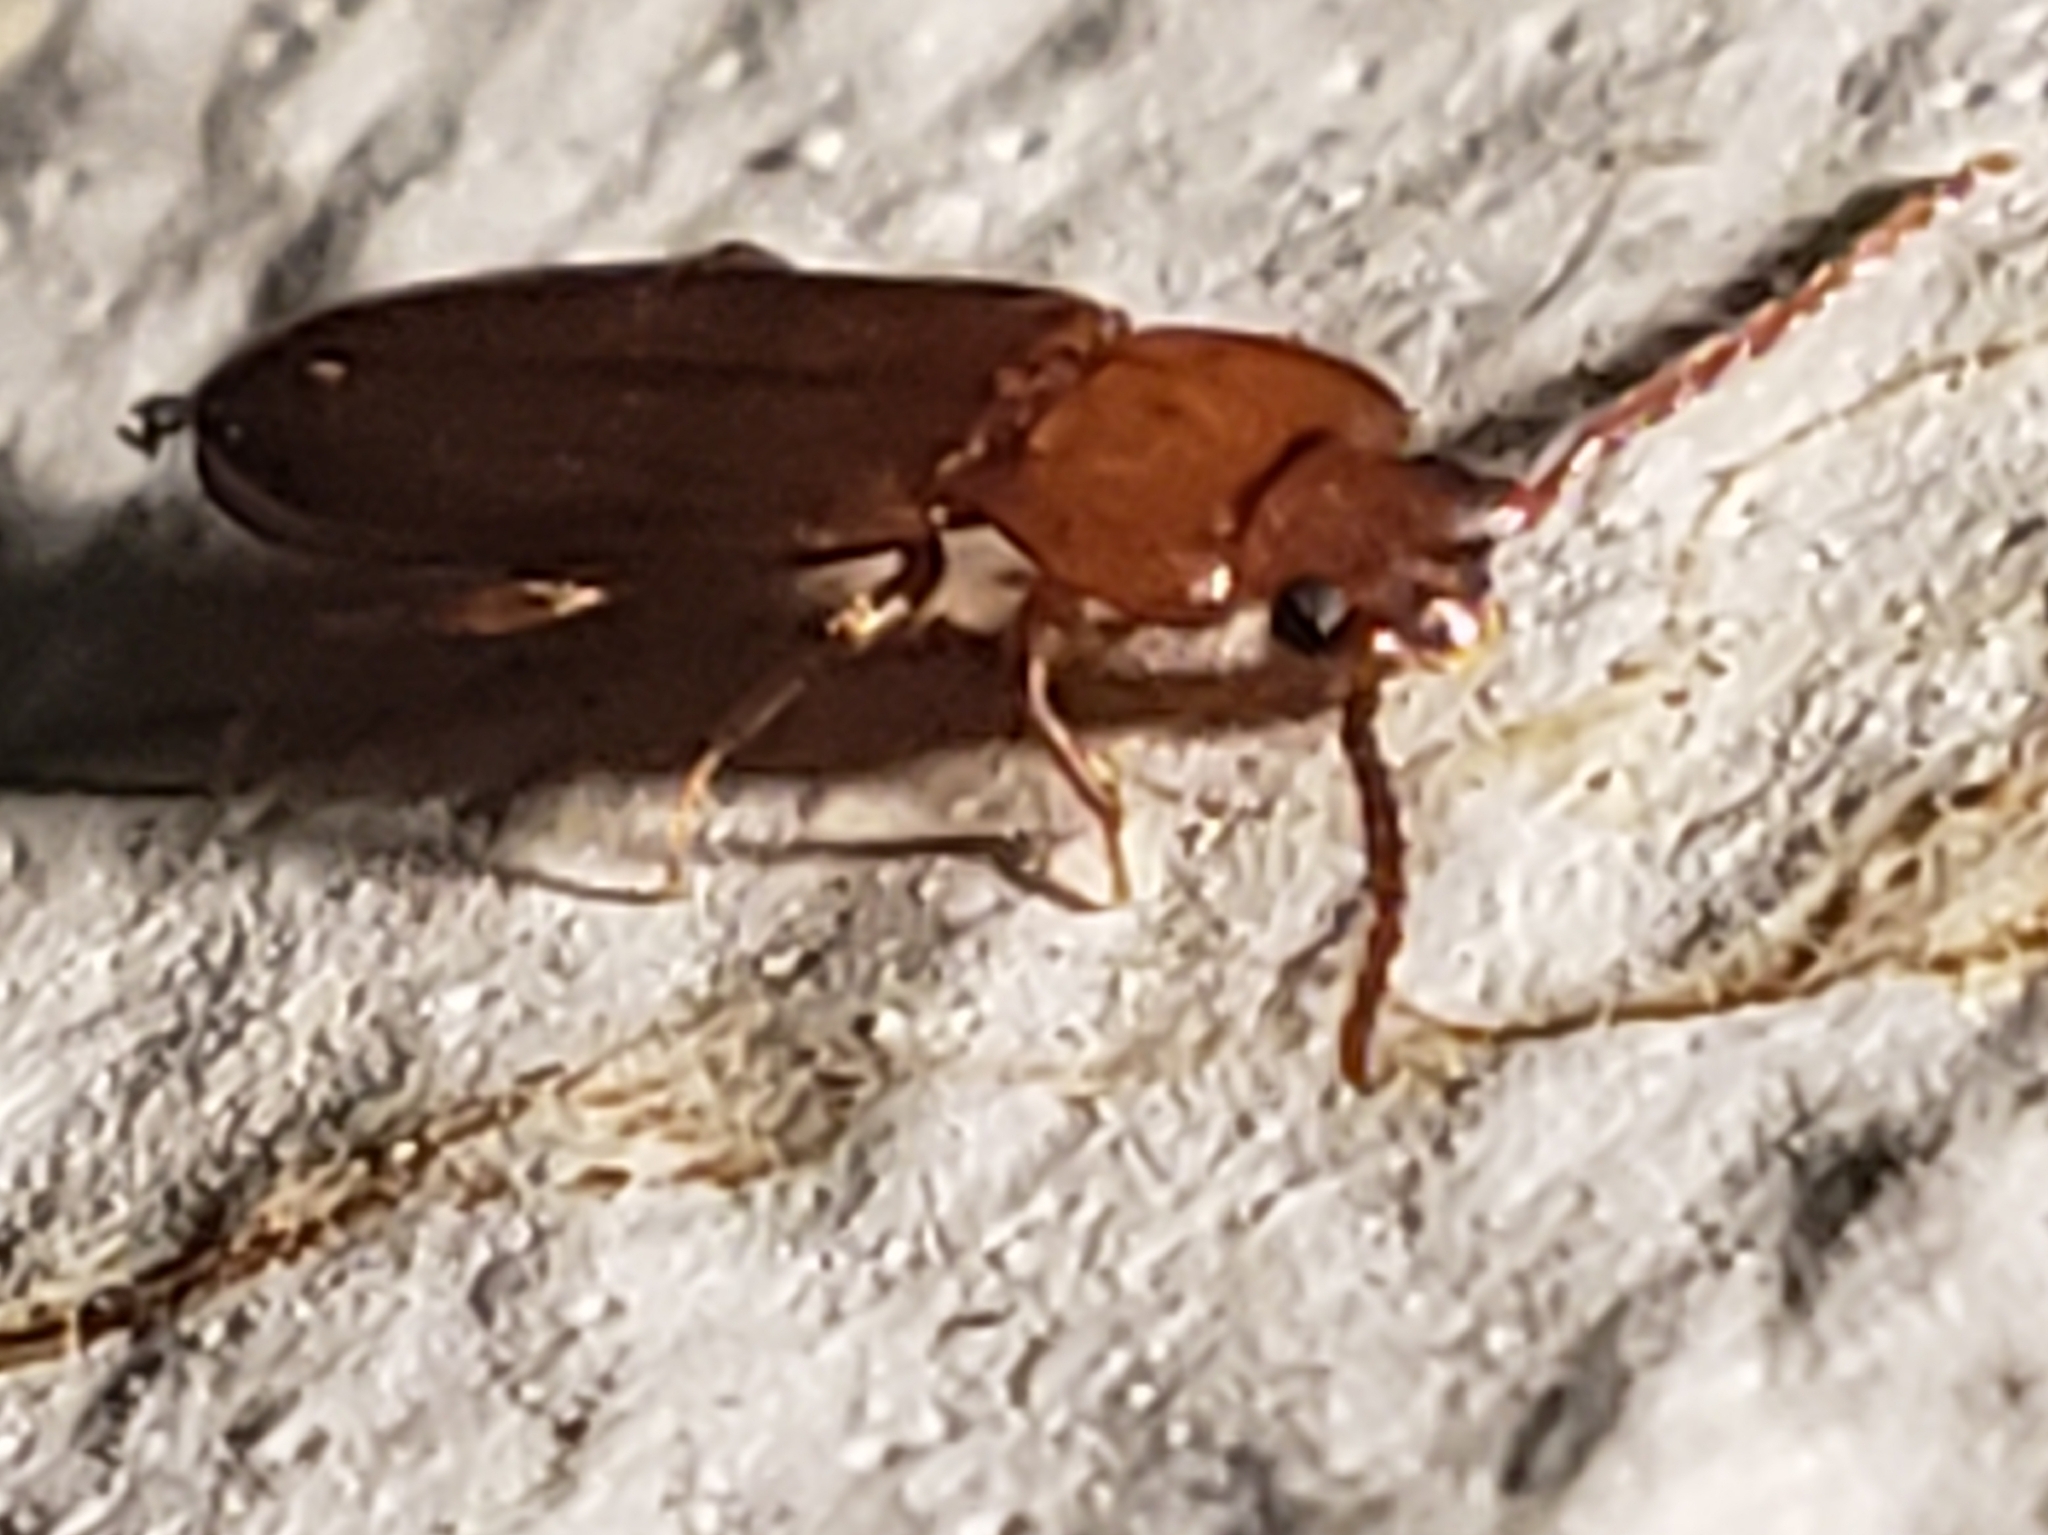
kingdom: Animalia
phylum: Arthropoda
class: Insecta
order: Coleoptera
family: Tenebrionidae
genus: Adelina
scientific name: Adelina pallida
